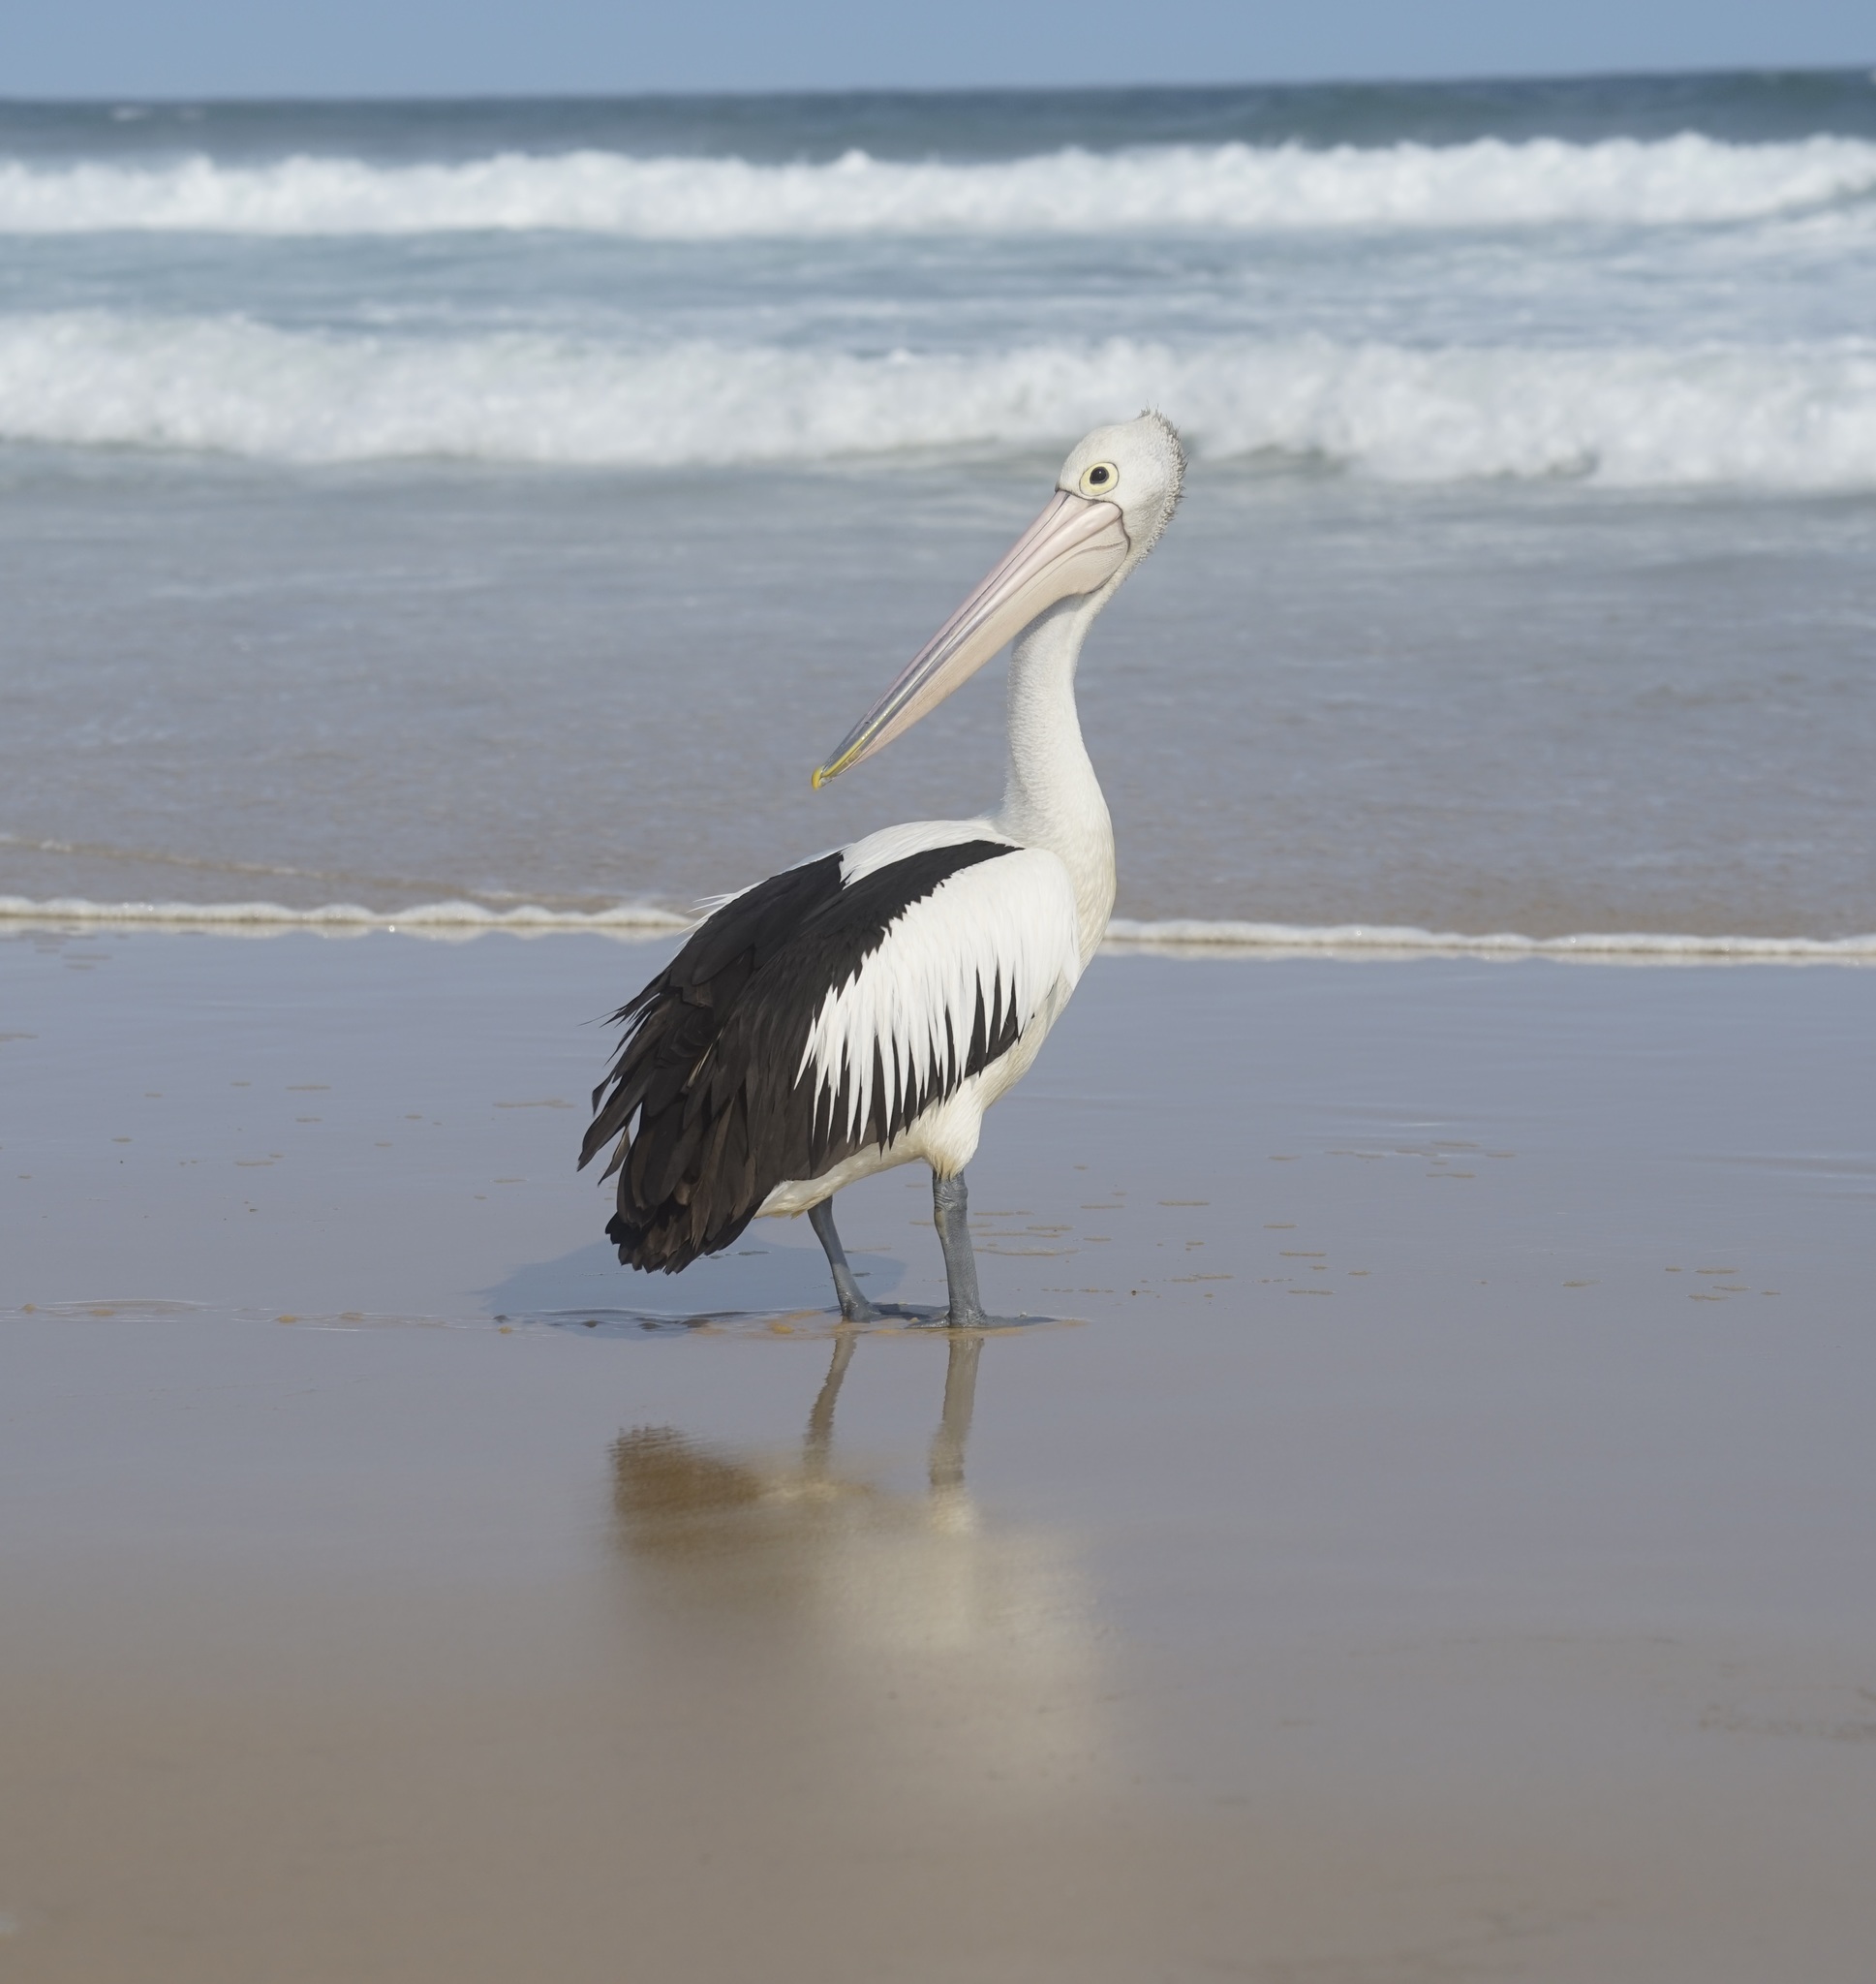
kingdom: Animalia
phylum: Chordata
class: Aves
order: Pelecaniformes
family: Pelecanidae
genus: Pelecanus
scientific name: Pelecanus conspicillatus
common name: Australian pelican
